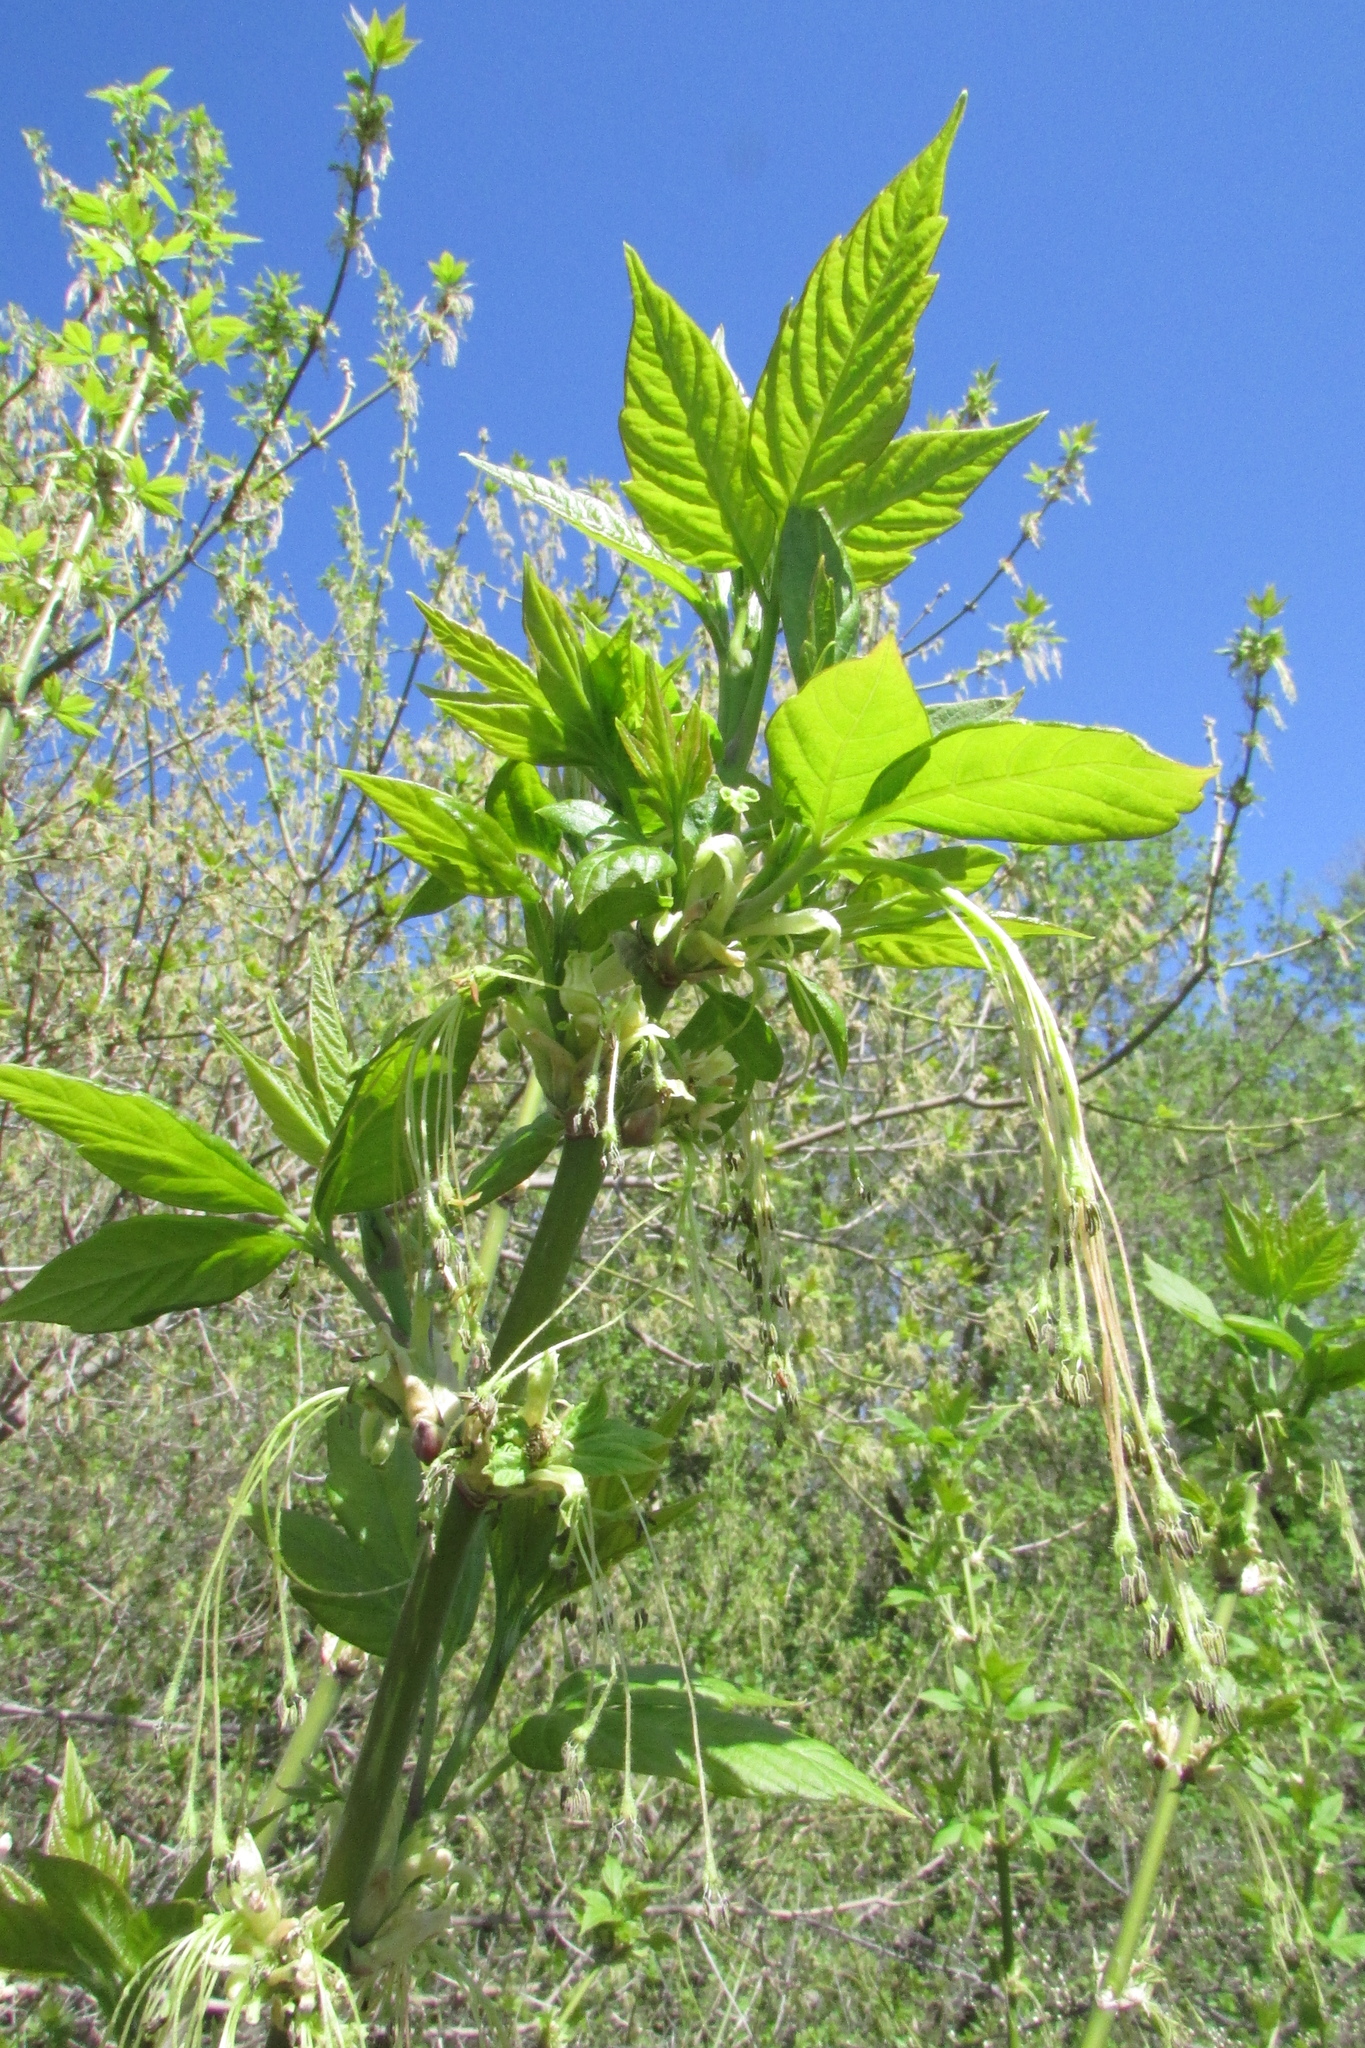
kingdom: Plantae
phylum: Tracheophyta
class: Magnoliopsida
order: Sapindales
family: Sapindaceae
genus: Acer
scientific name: Acer negundo
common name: Ashleaf maple
